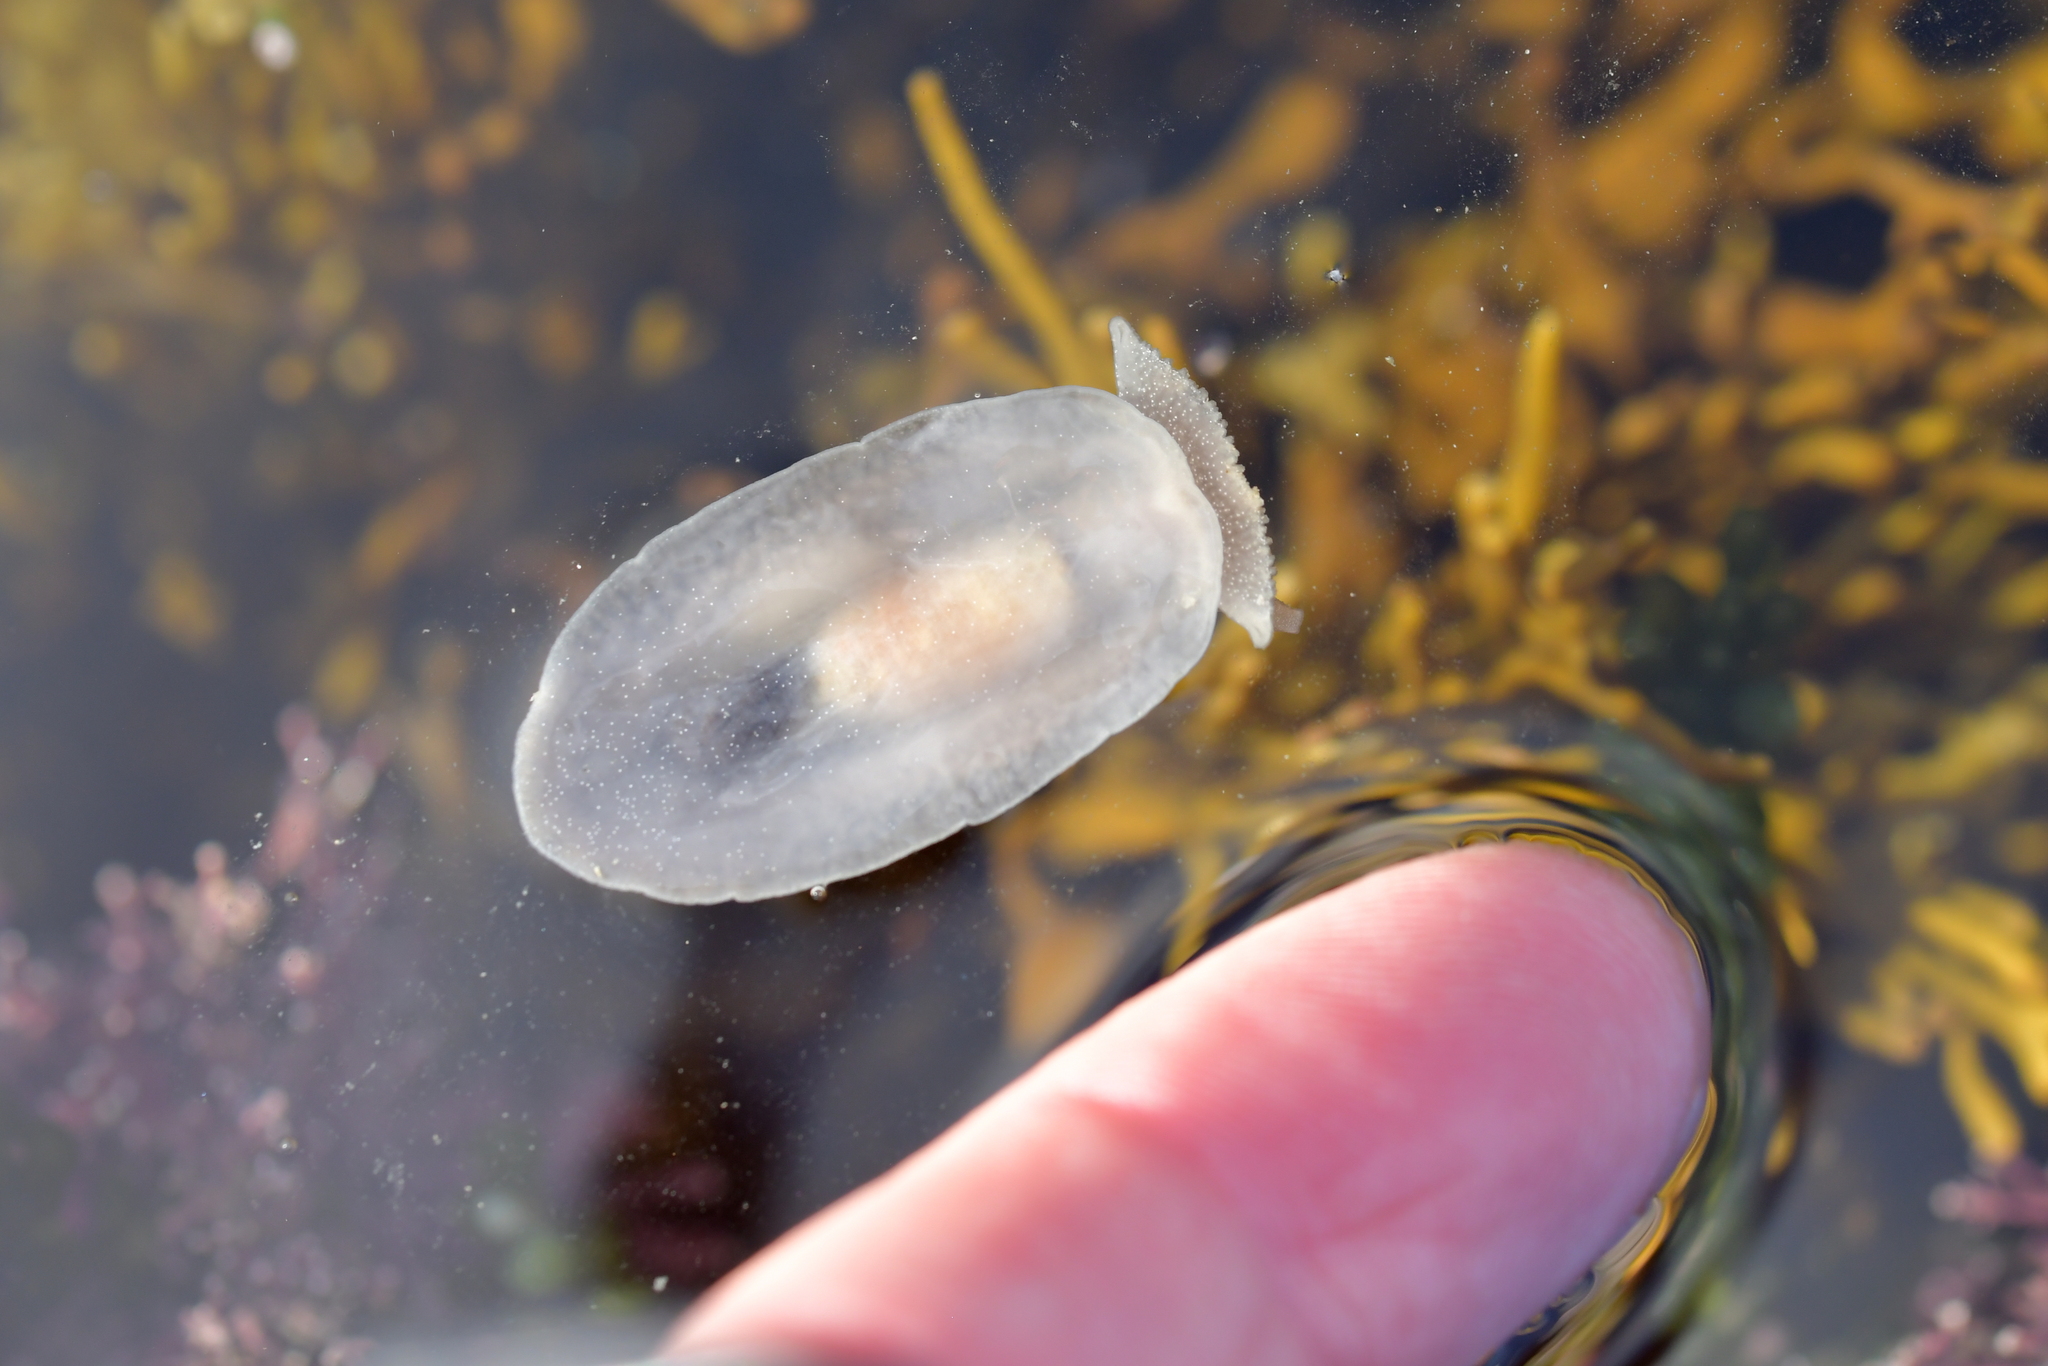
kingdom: Animalia
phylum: Mollusca
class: Gastropoda
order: Pleurobranchida
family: Pleurobranchaeidae
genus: Pleurobranchaea
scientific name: Pleurobranchaea maculata
